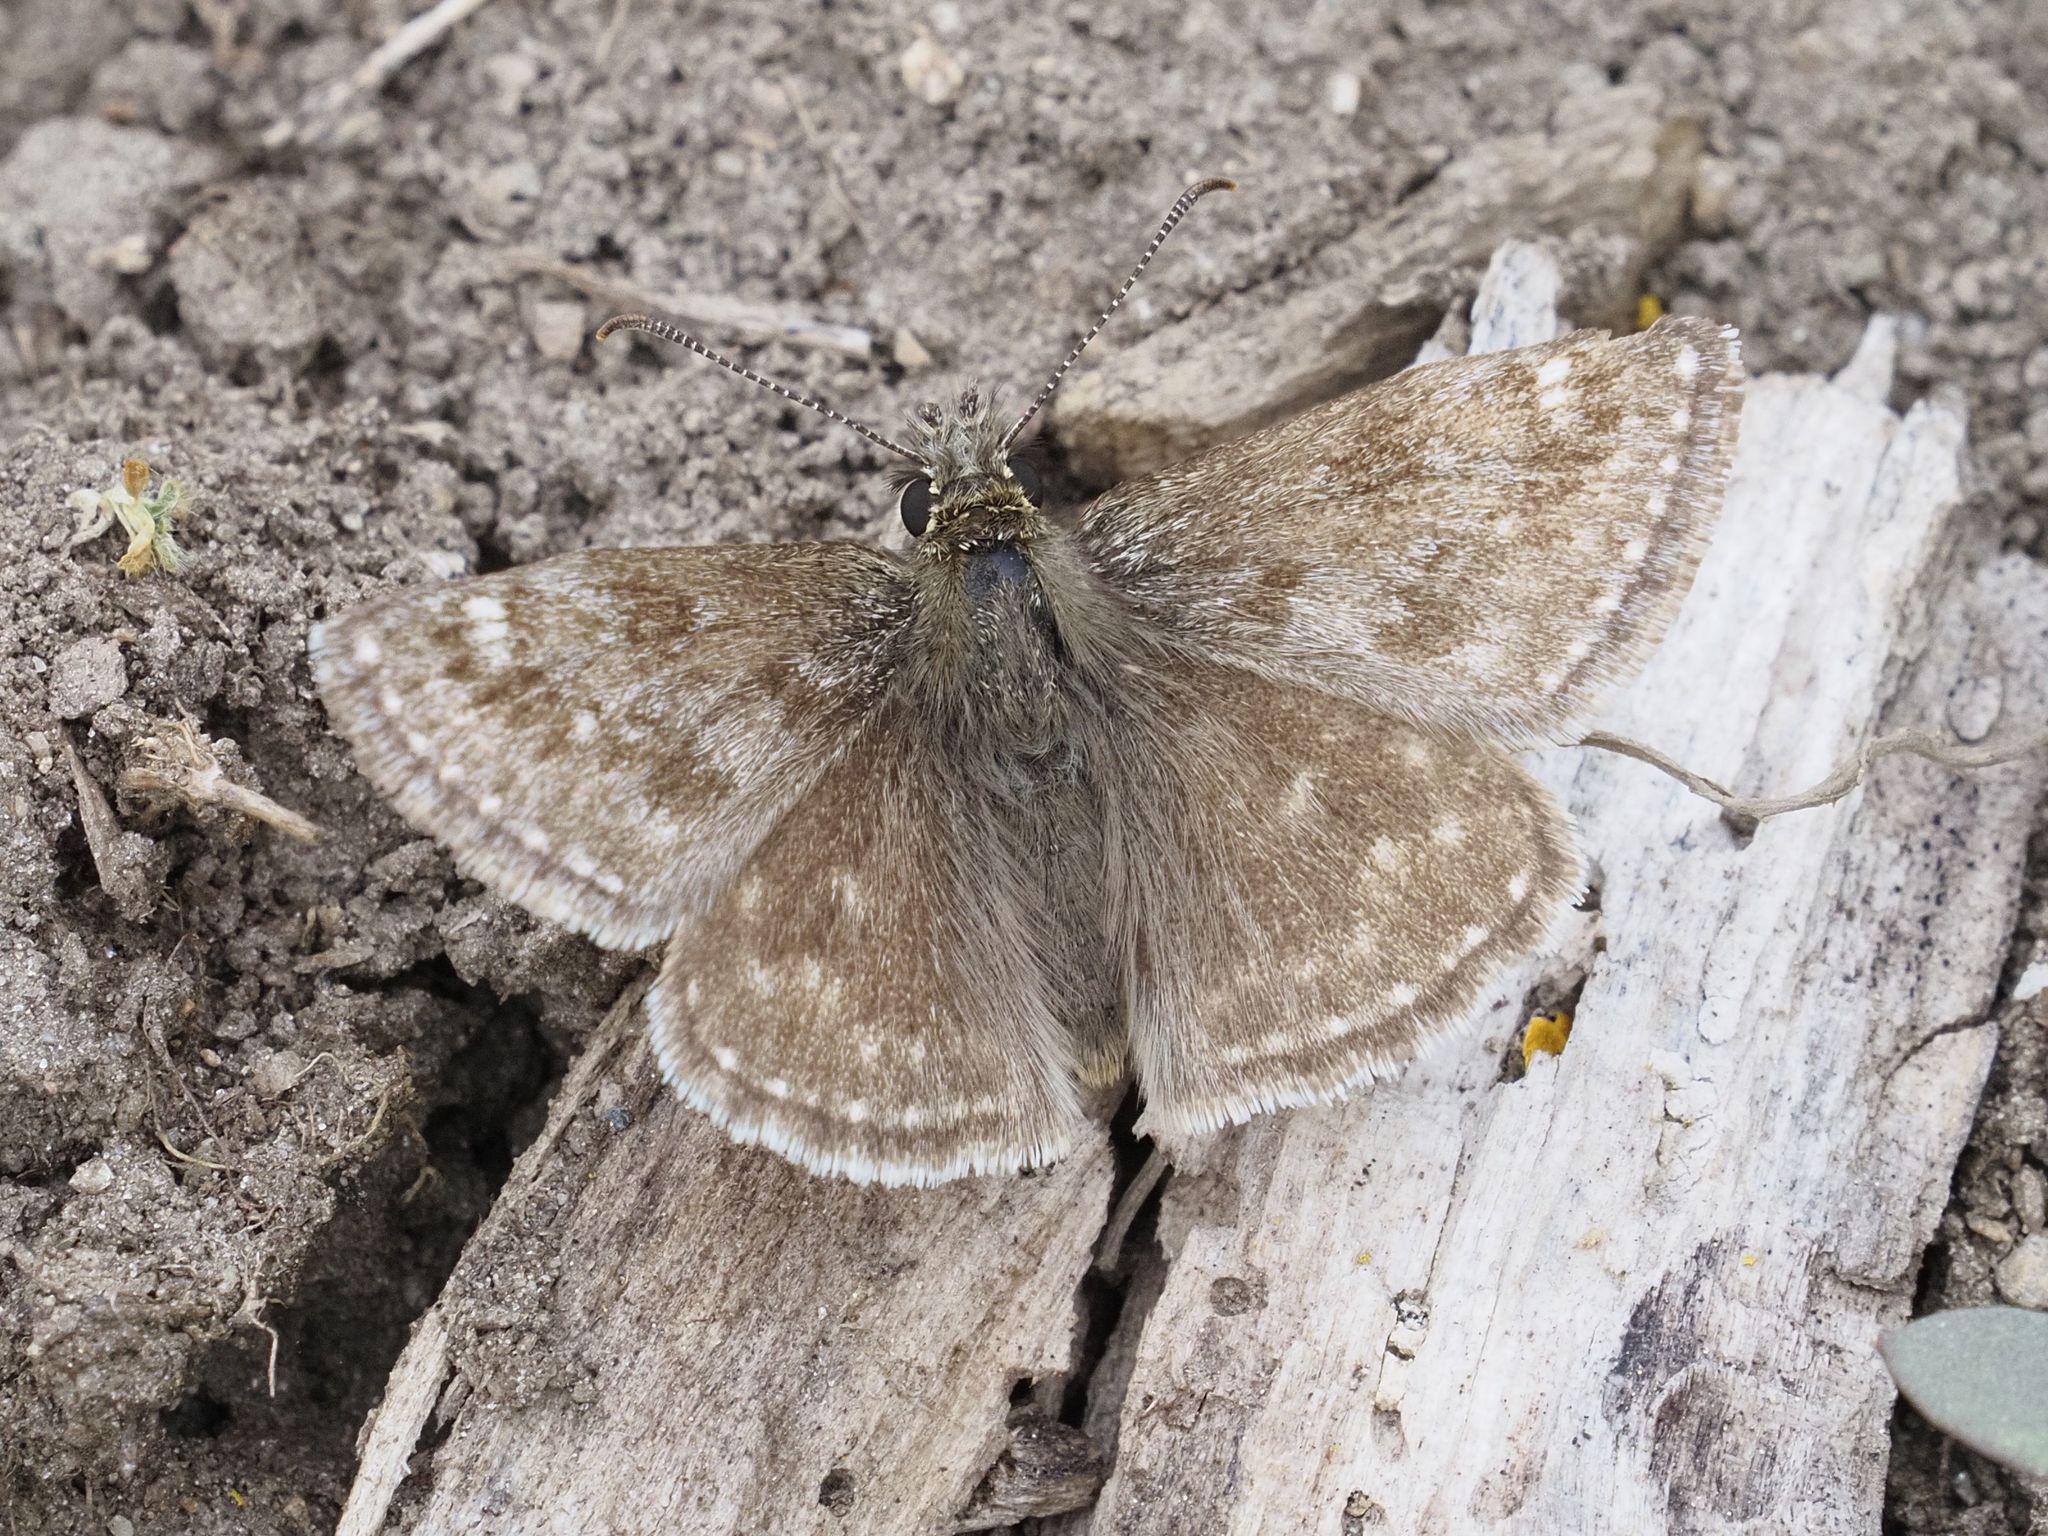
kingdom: Animalia
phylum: Arthropoda
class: Insecta
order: Lepidoptera
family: Hesperiidae
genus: Erynnis
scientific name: Erynnis tages
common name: Dingy skipper
